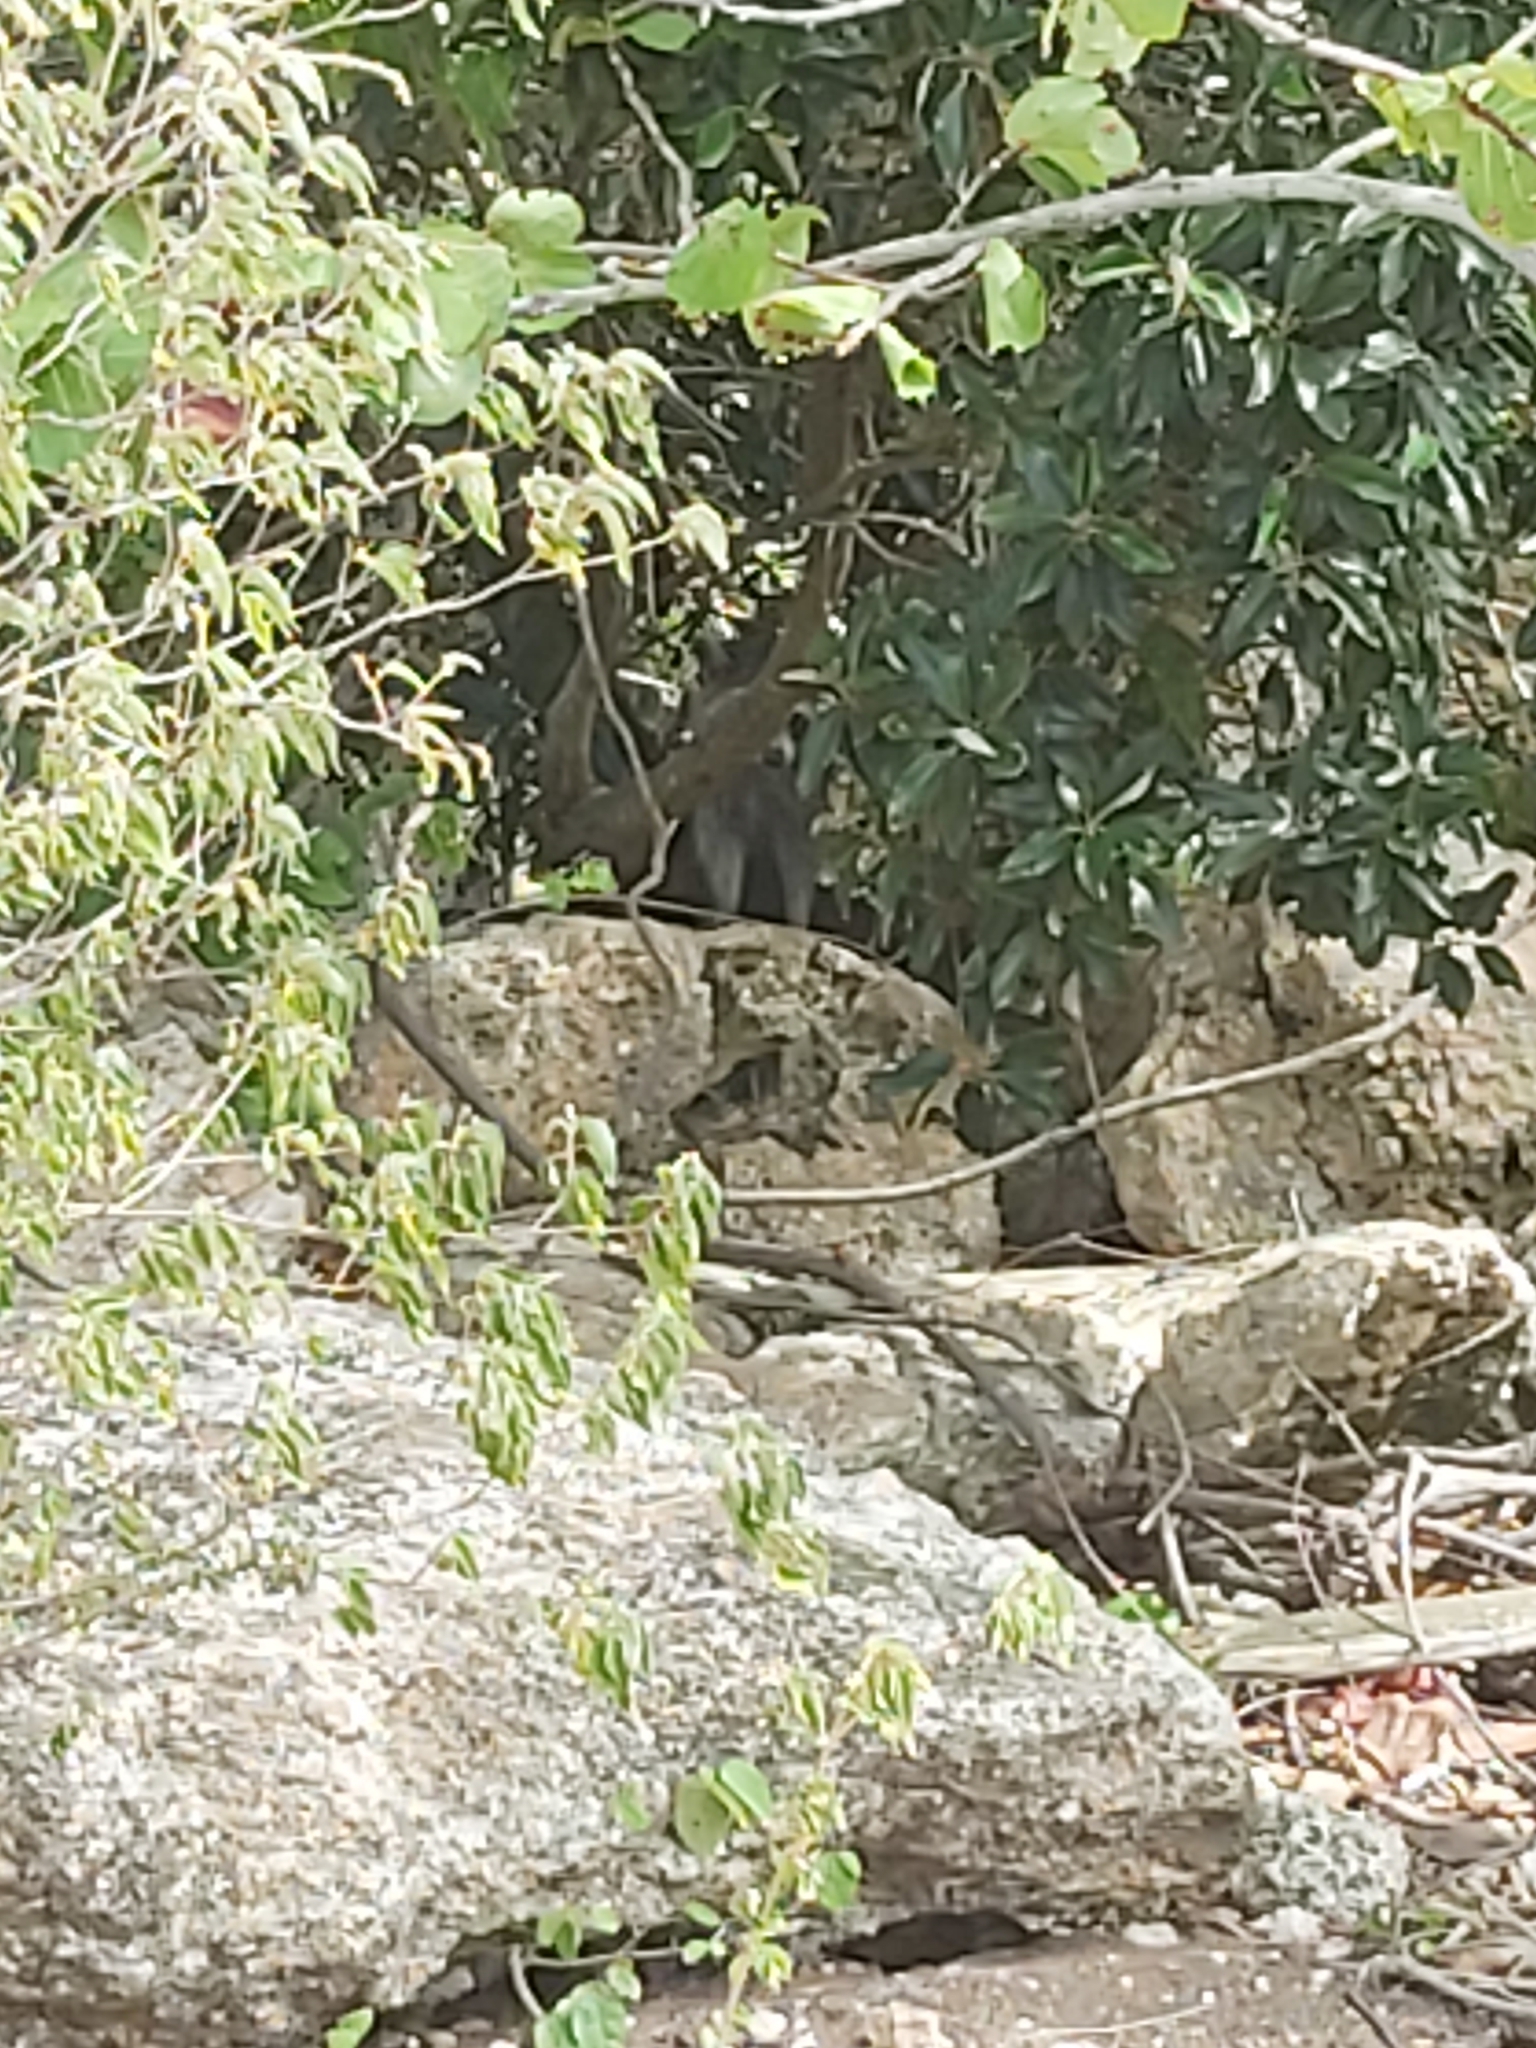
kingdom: Animalia
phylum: Chordata
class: Mammalia
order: Carnivora
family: Procyonidae
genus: Procyon
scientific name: Procyon lotor
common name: Raccoon
